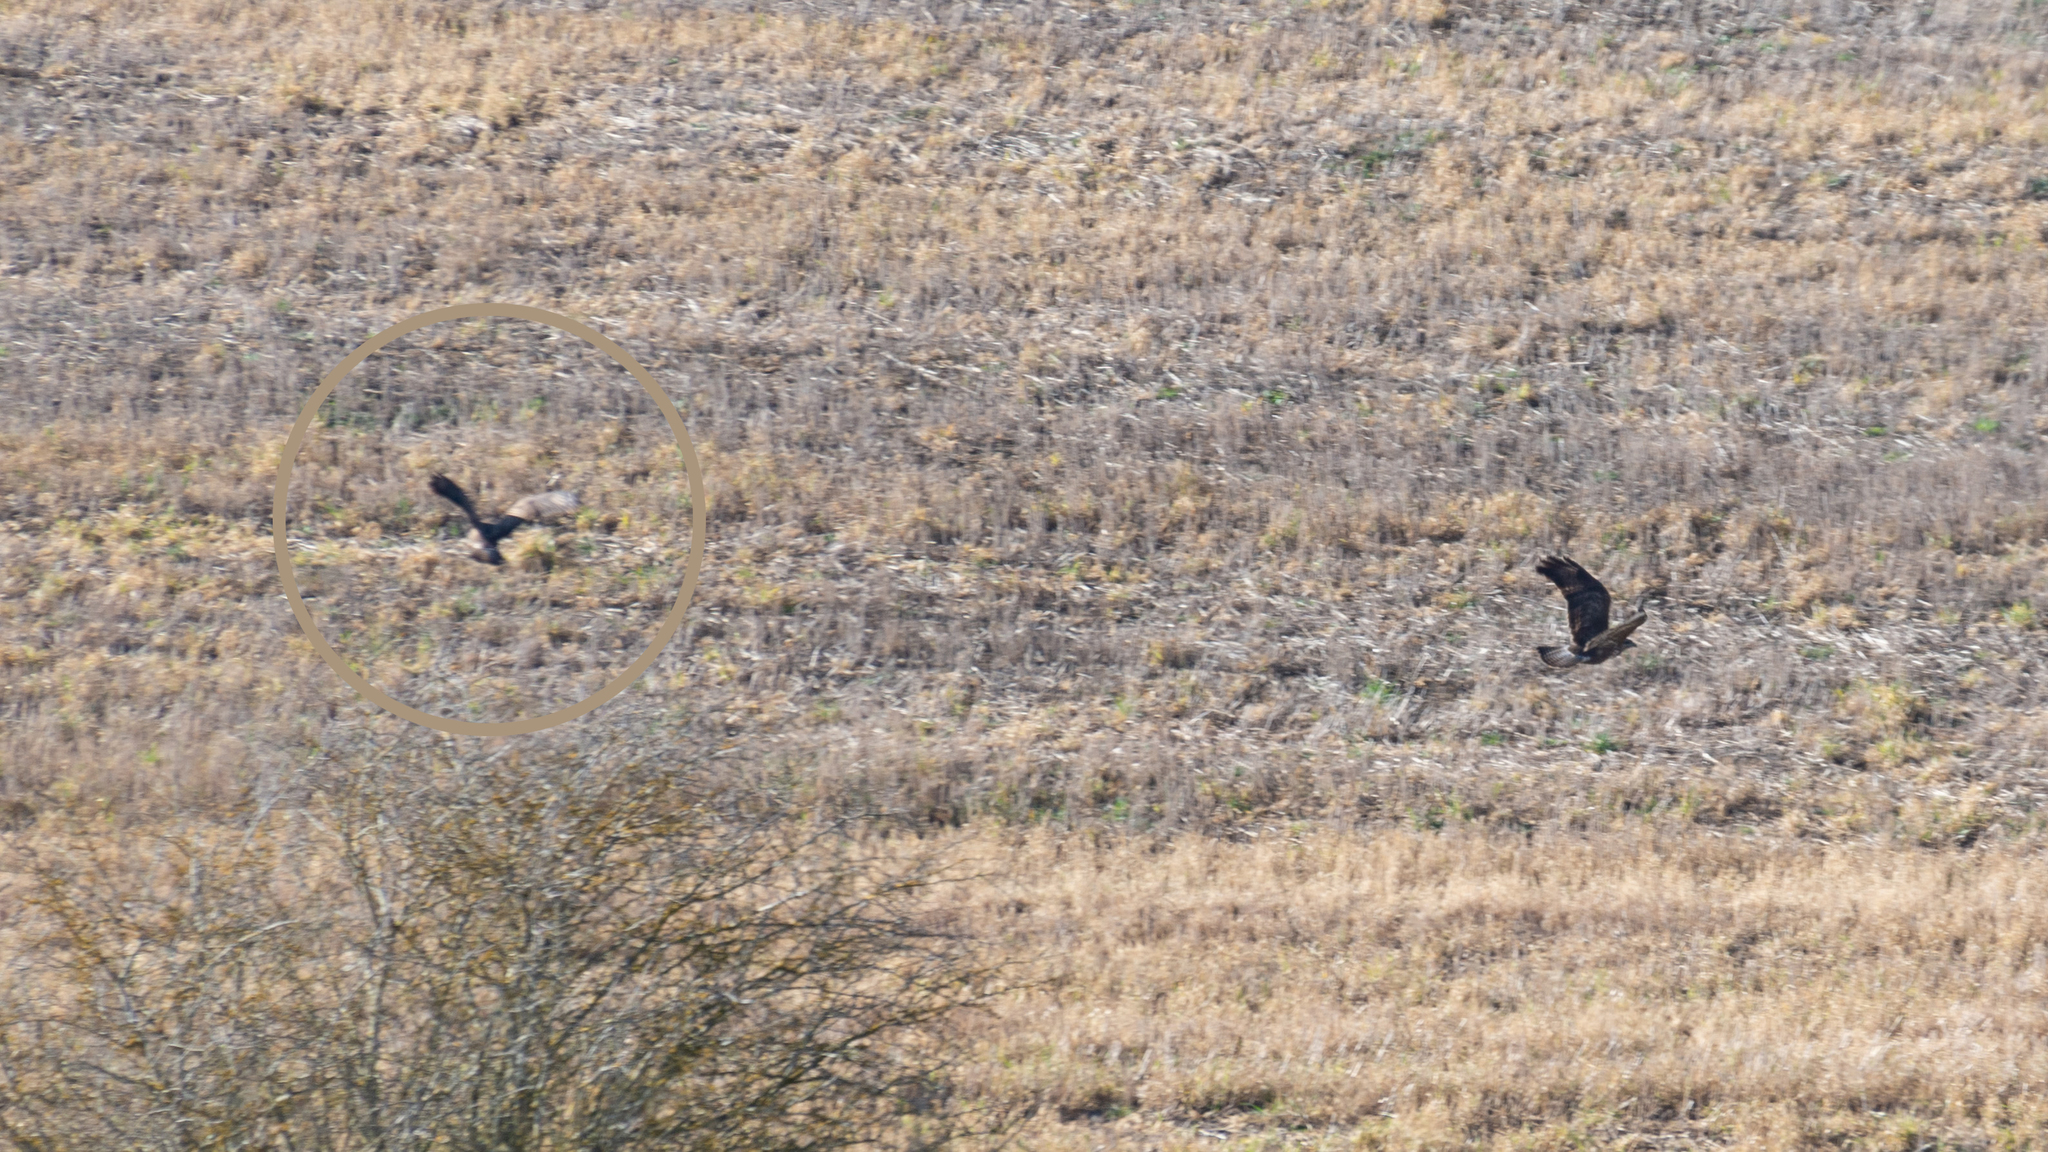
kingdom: Animalia
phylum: Chordata
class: Aves
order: Accipitriformes
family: Accipitridae
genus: Buteo
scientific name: Buteo buteo
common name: Common buzzard
